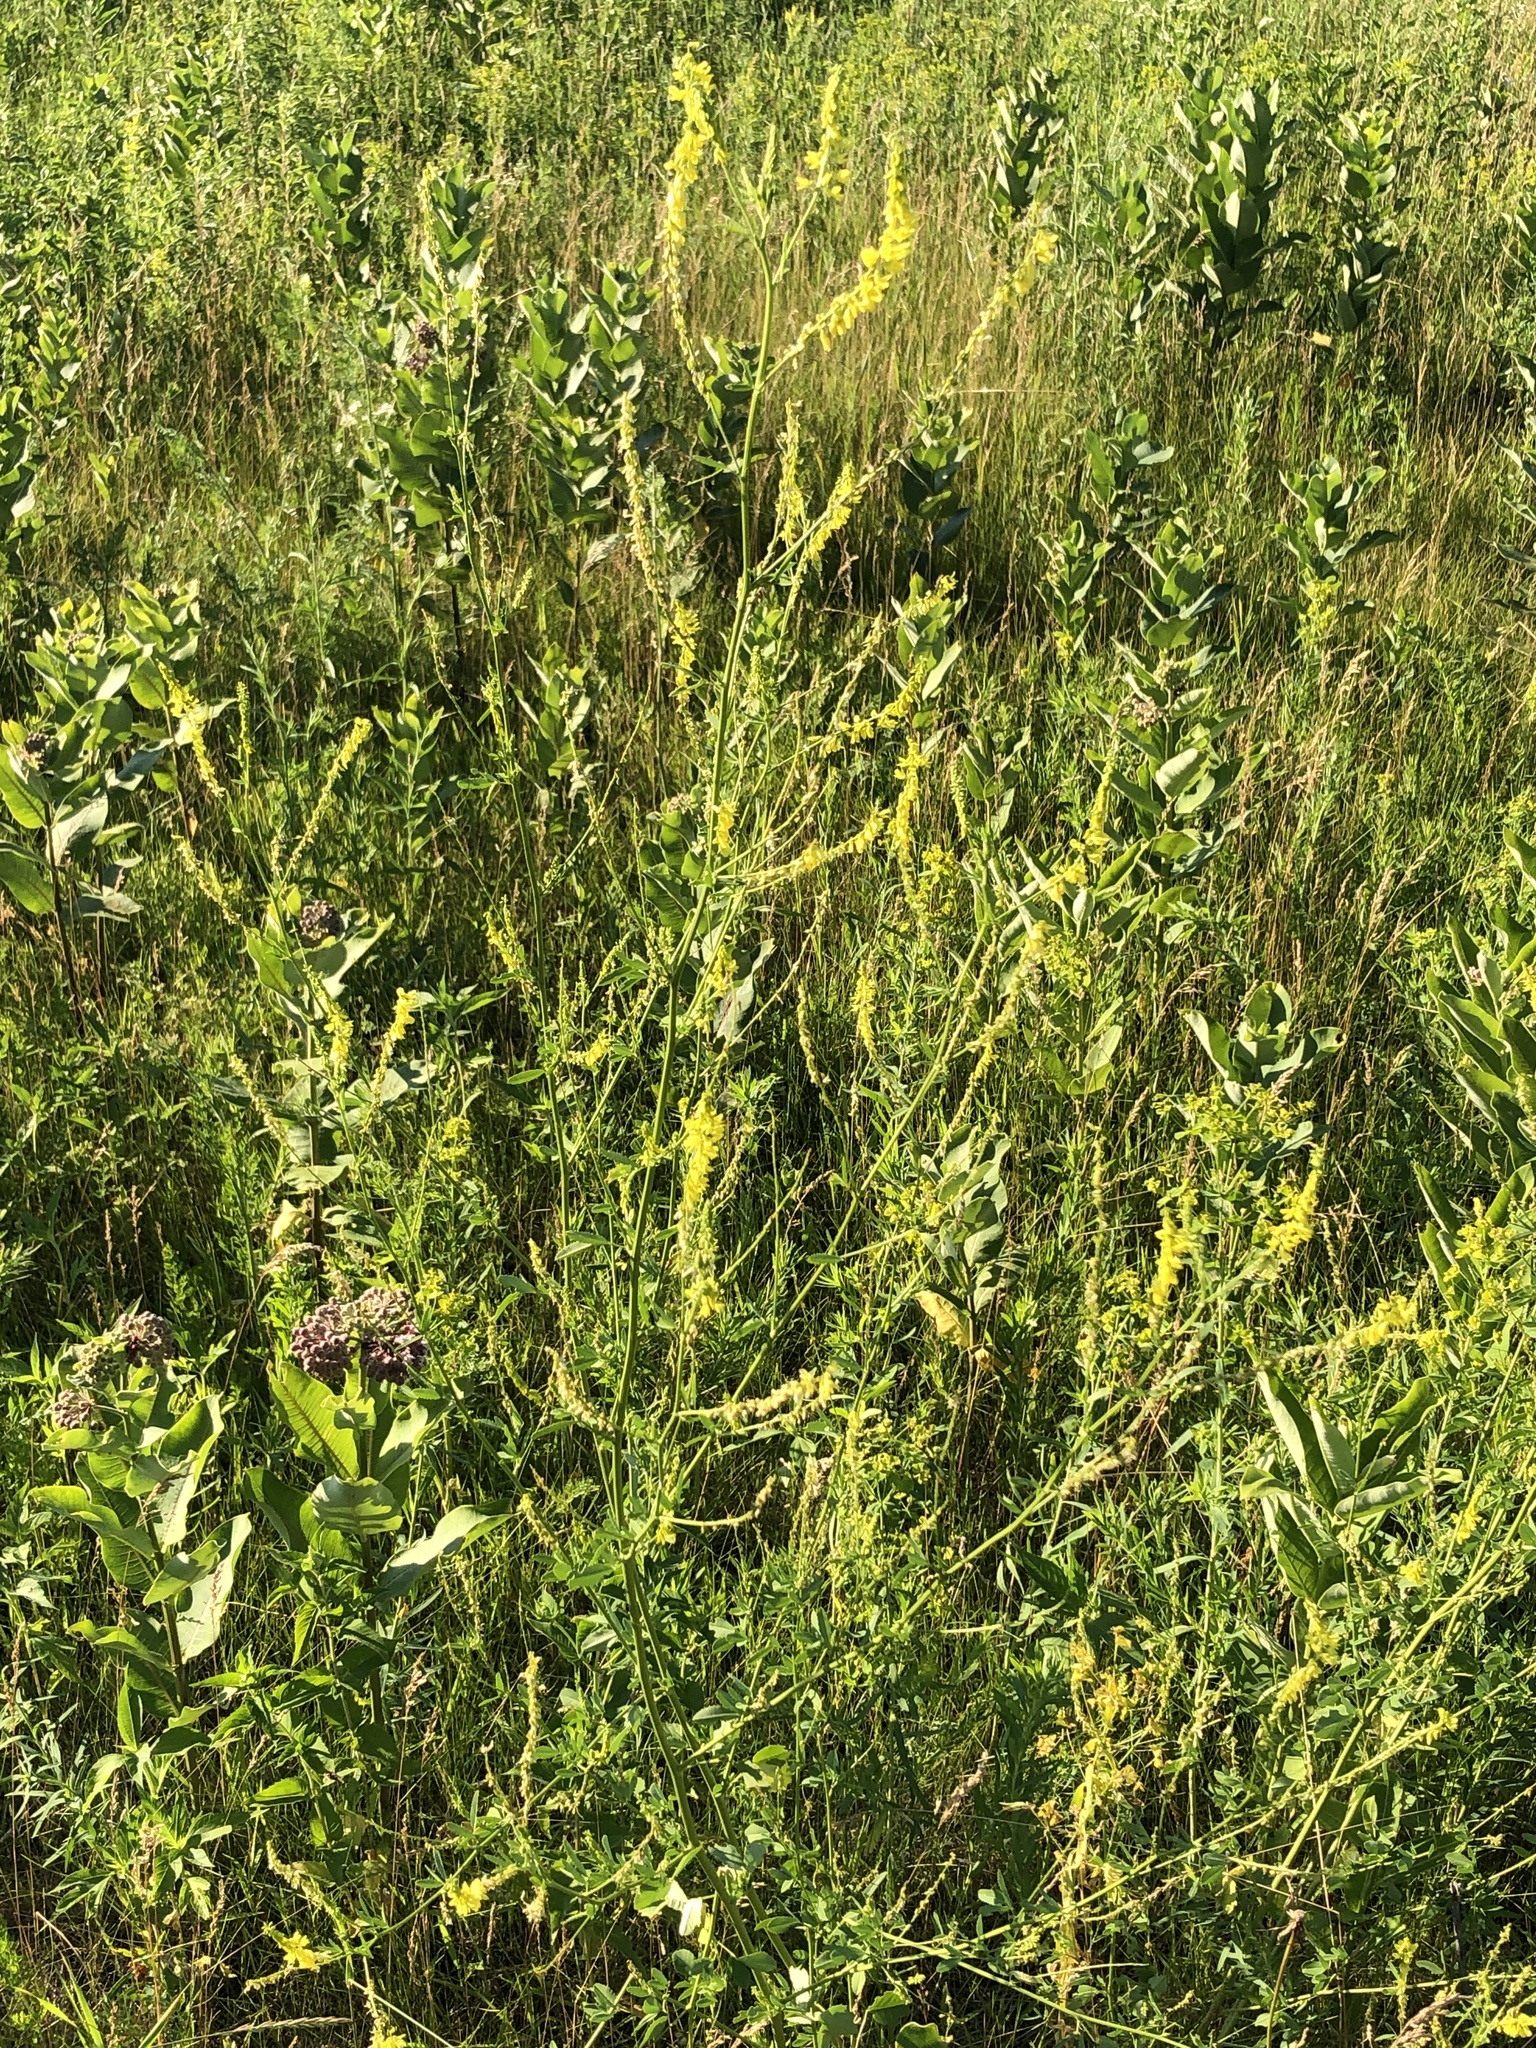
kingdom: Plantae
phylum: Tracheophyta
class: Magnoliopsida
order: Fabales
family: Fabaceae
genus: Melilotus
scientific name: Melilotus officinalis
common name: Sweetclover
